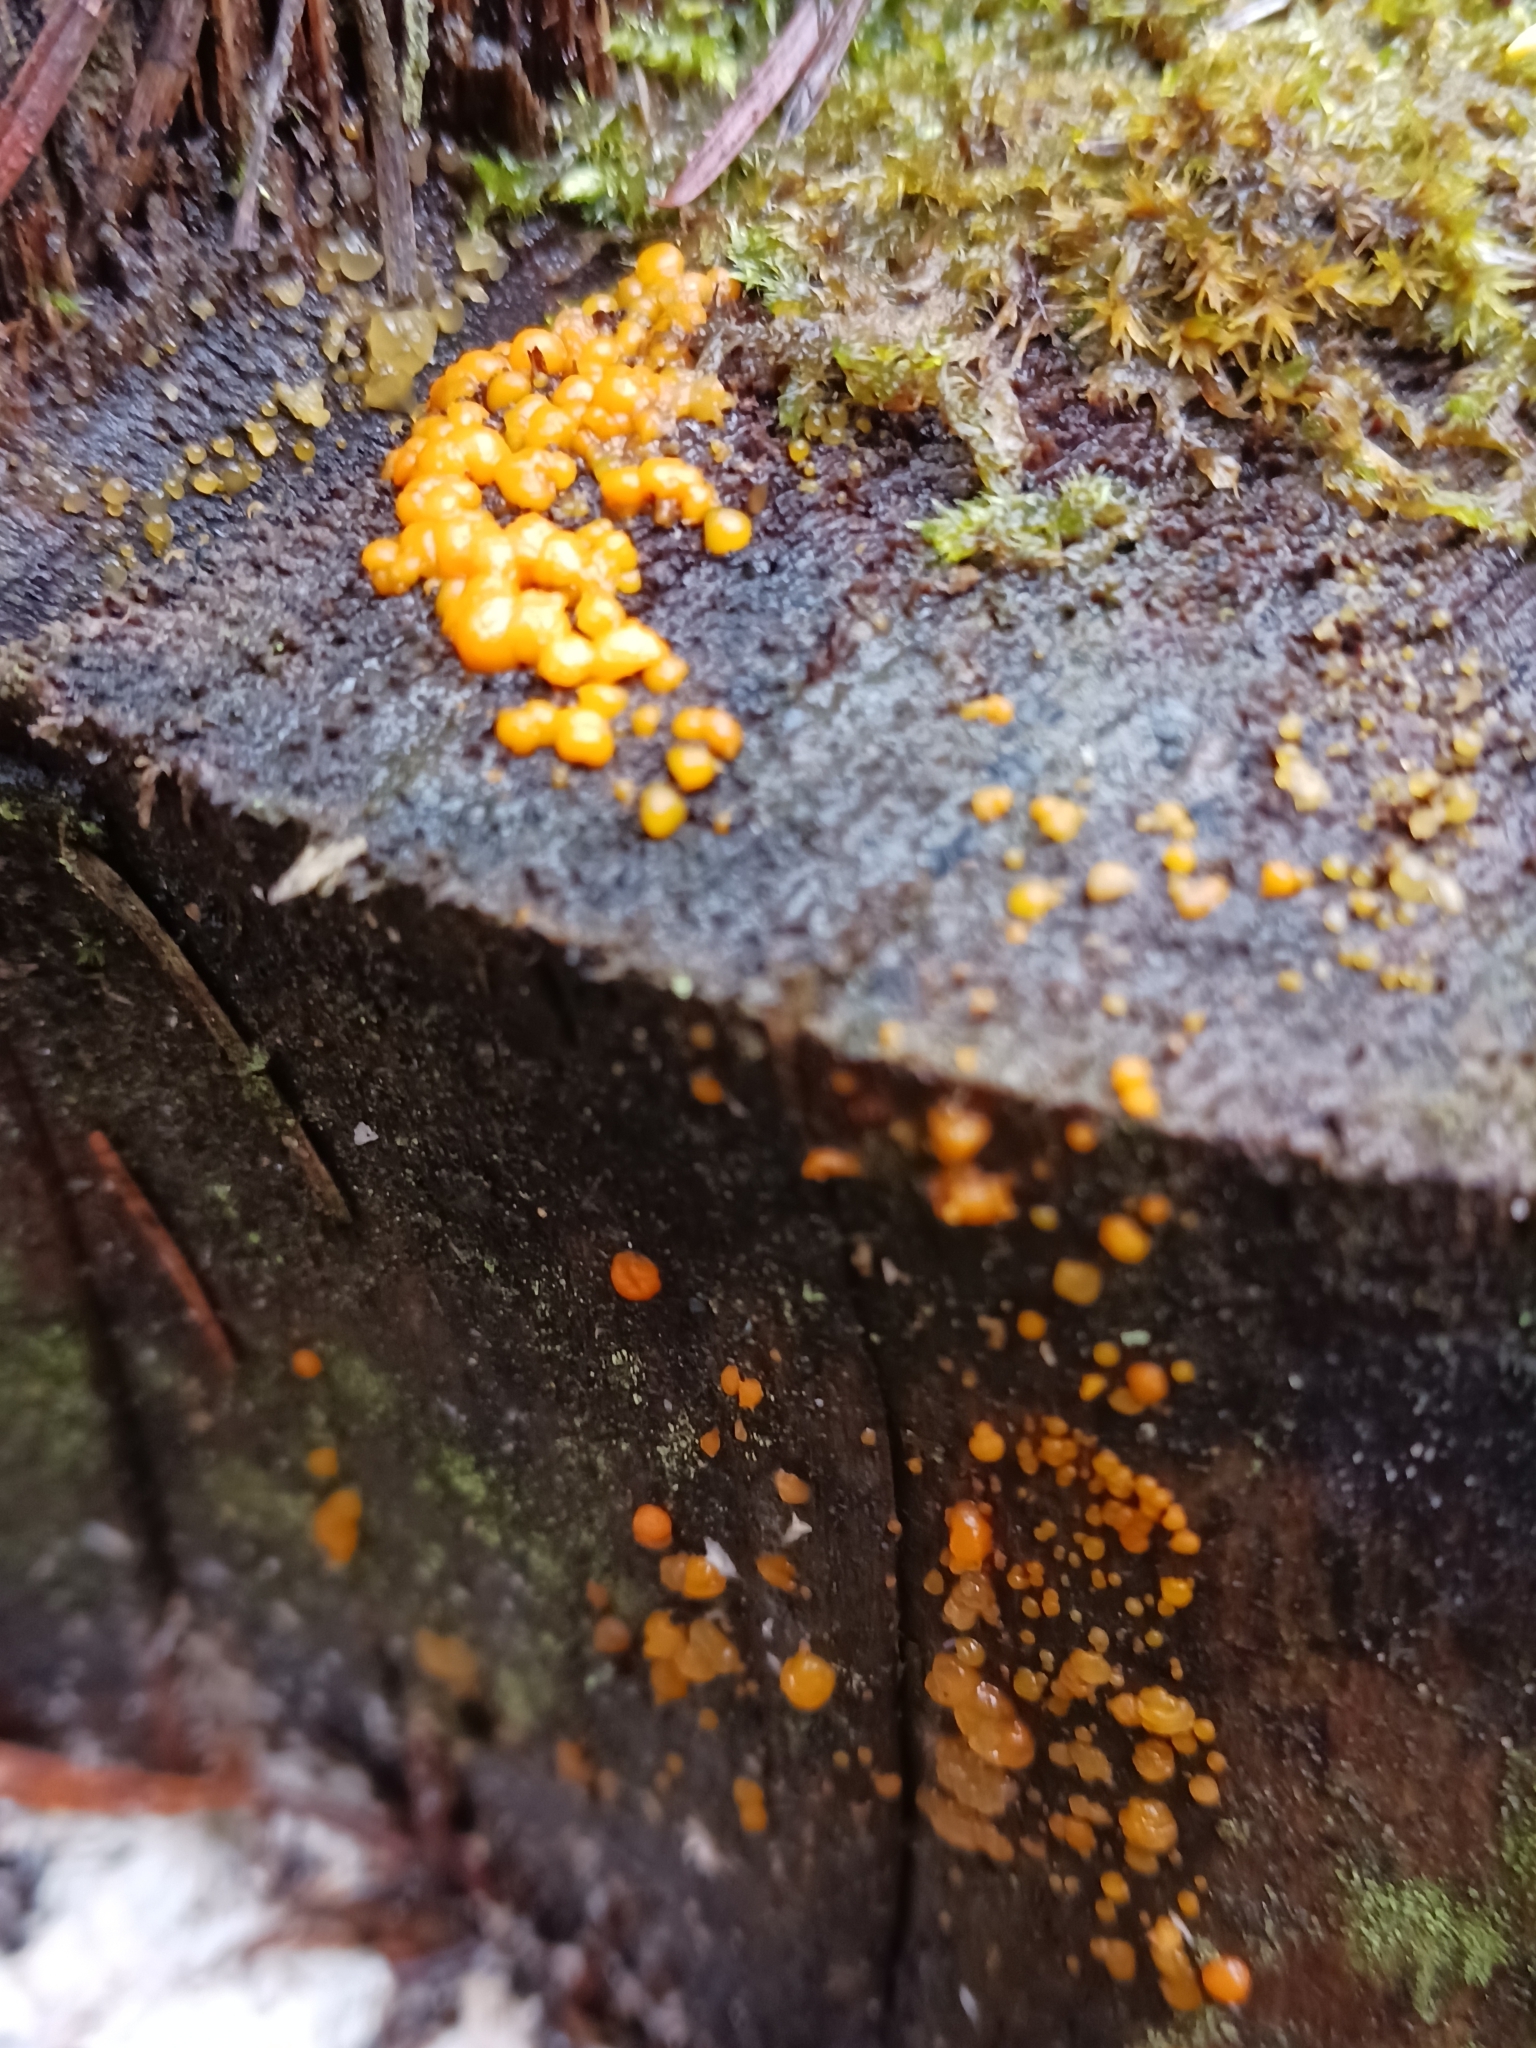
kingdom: Fungi
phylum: Basidiomycota
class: Dacrymycetes
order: Dacrymycetales
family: Dacrymycetaceae
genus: Dacrymyces
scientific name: Dacrymyces stillatus
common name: Common jelly spot
